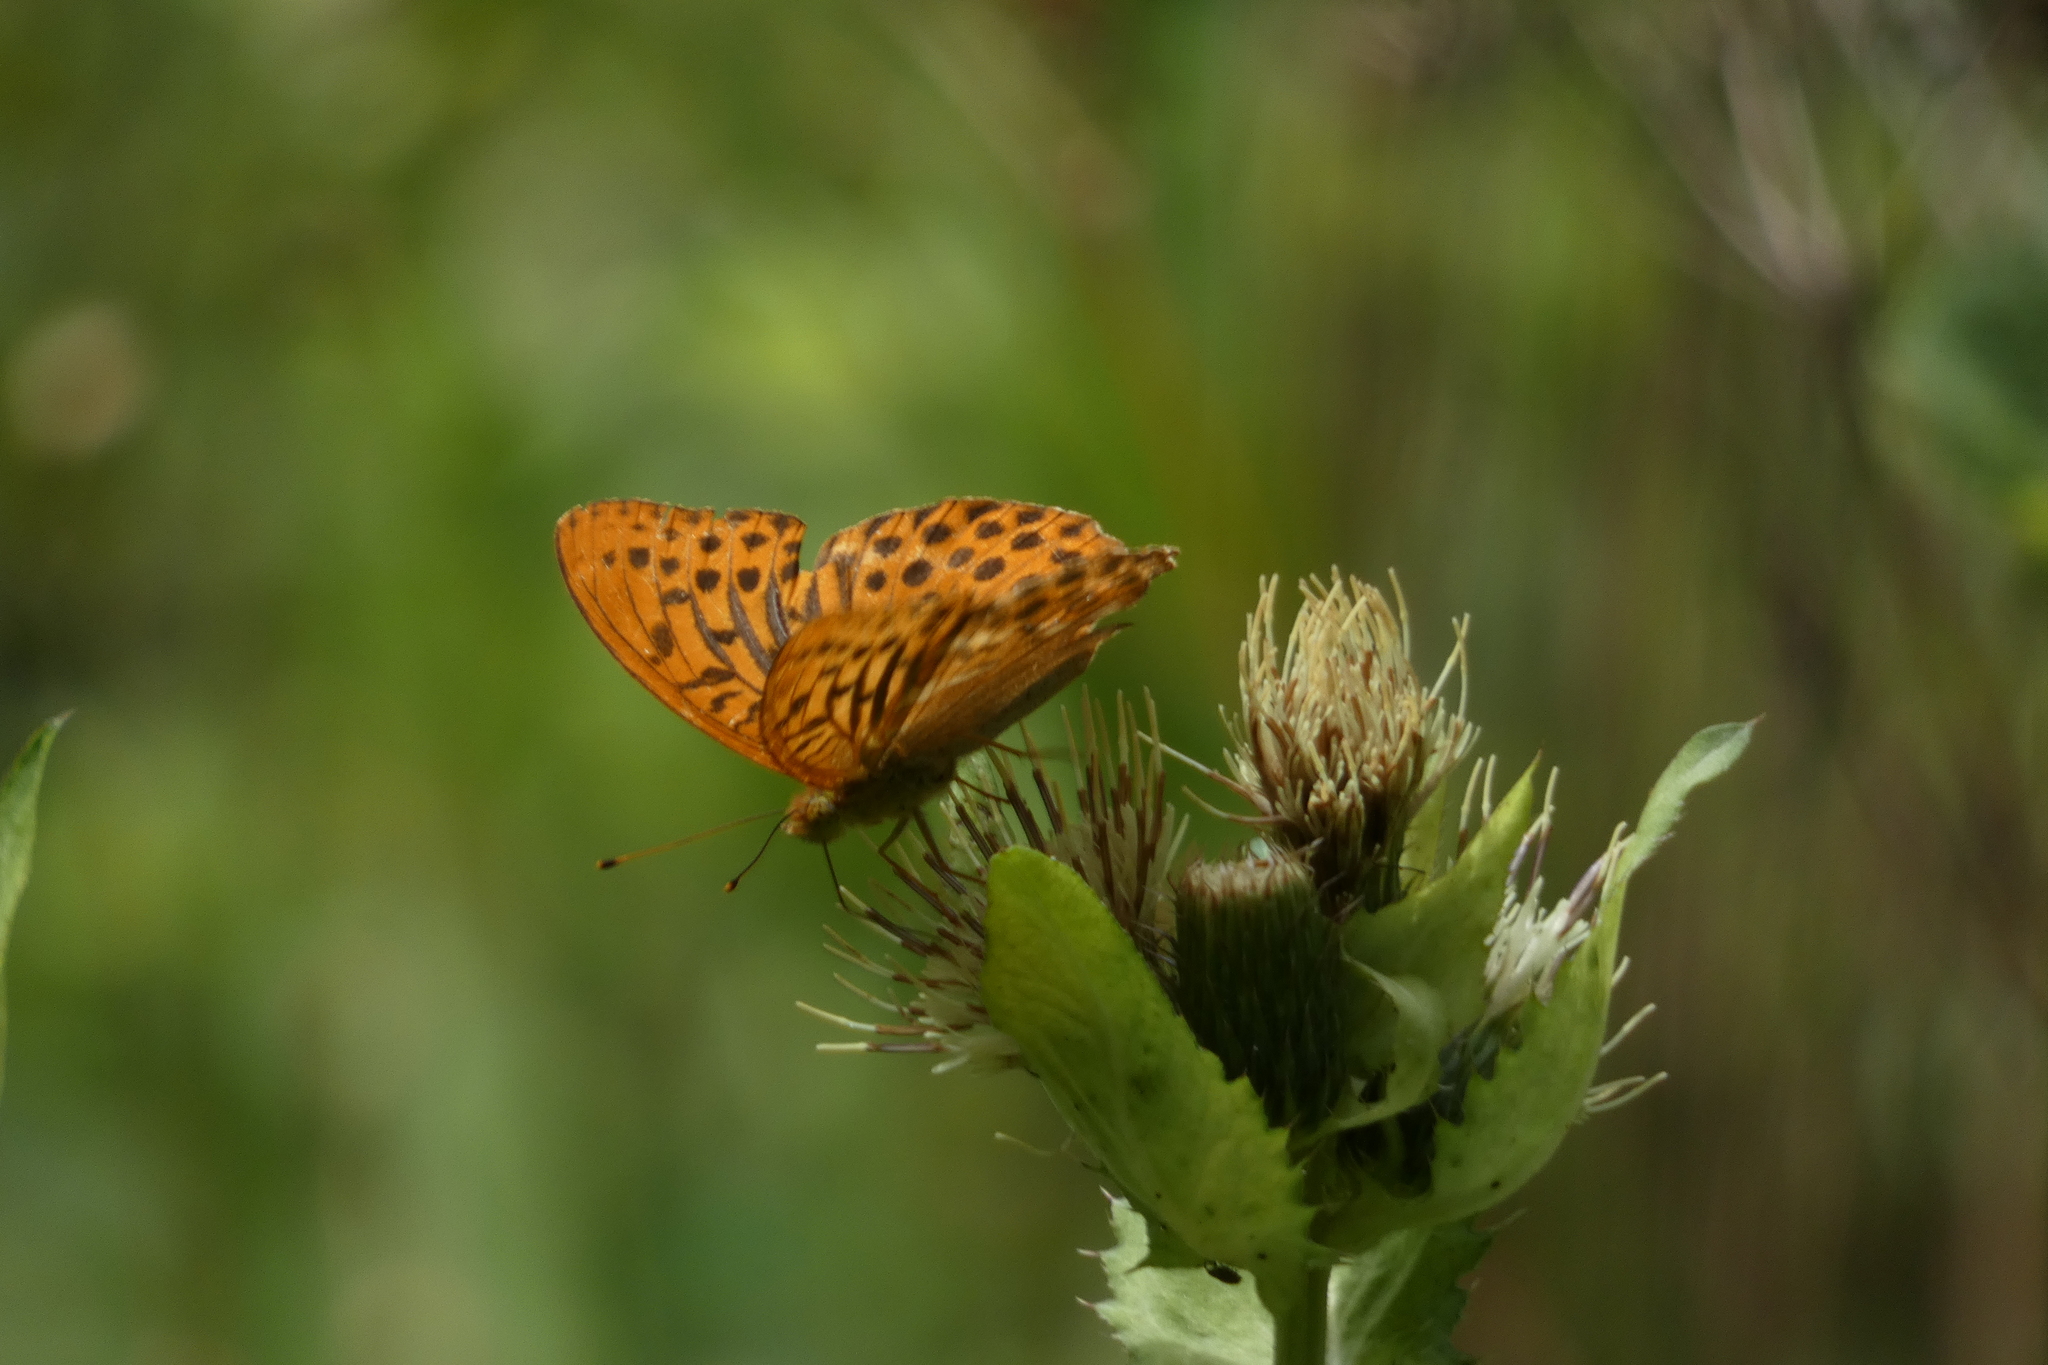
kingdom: Animalia
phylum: Arthropoda
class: Insecta
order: Lepidoptera
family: Nymphalidae
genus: Argynnis
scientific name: Argynnis paphia
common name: Silver-washed fritillary
